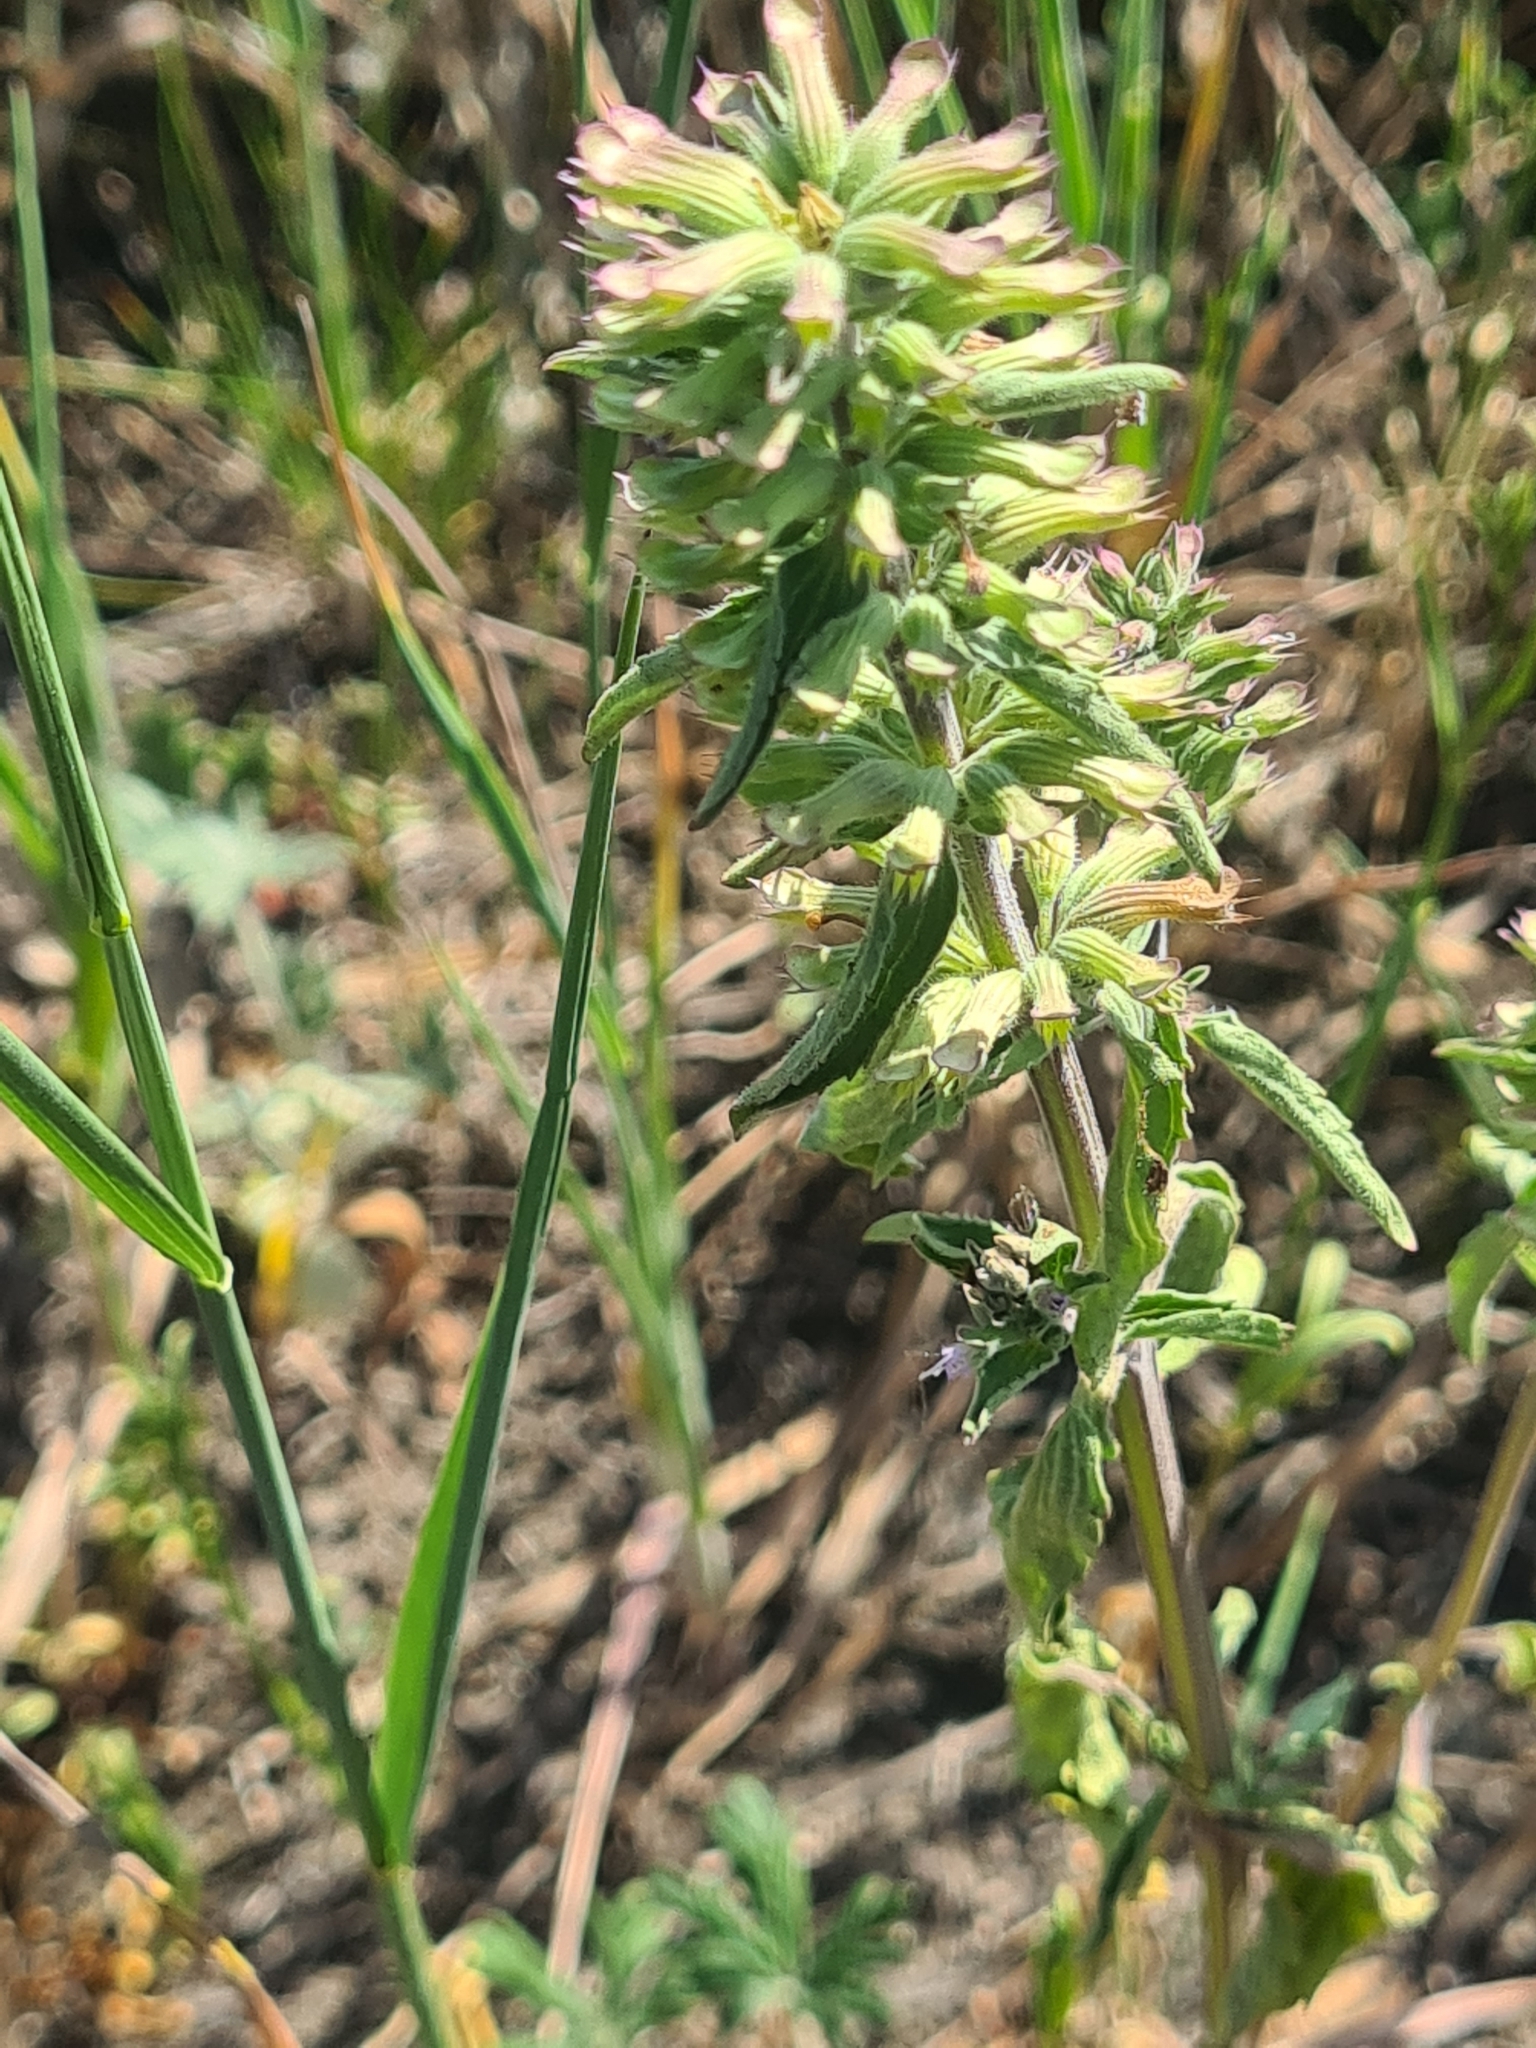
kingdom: Plantae
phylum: Tracheophyta
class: Magnoliopsida
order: Lamiales
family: Lamiaceae
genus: Dracocephalum
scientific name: Dracocephalum thymiflorum
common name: Thymeleaf dragonhead
